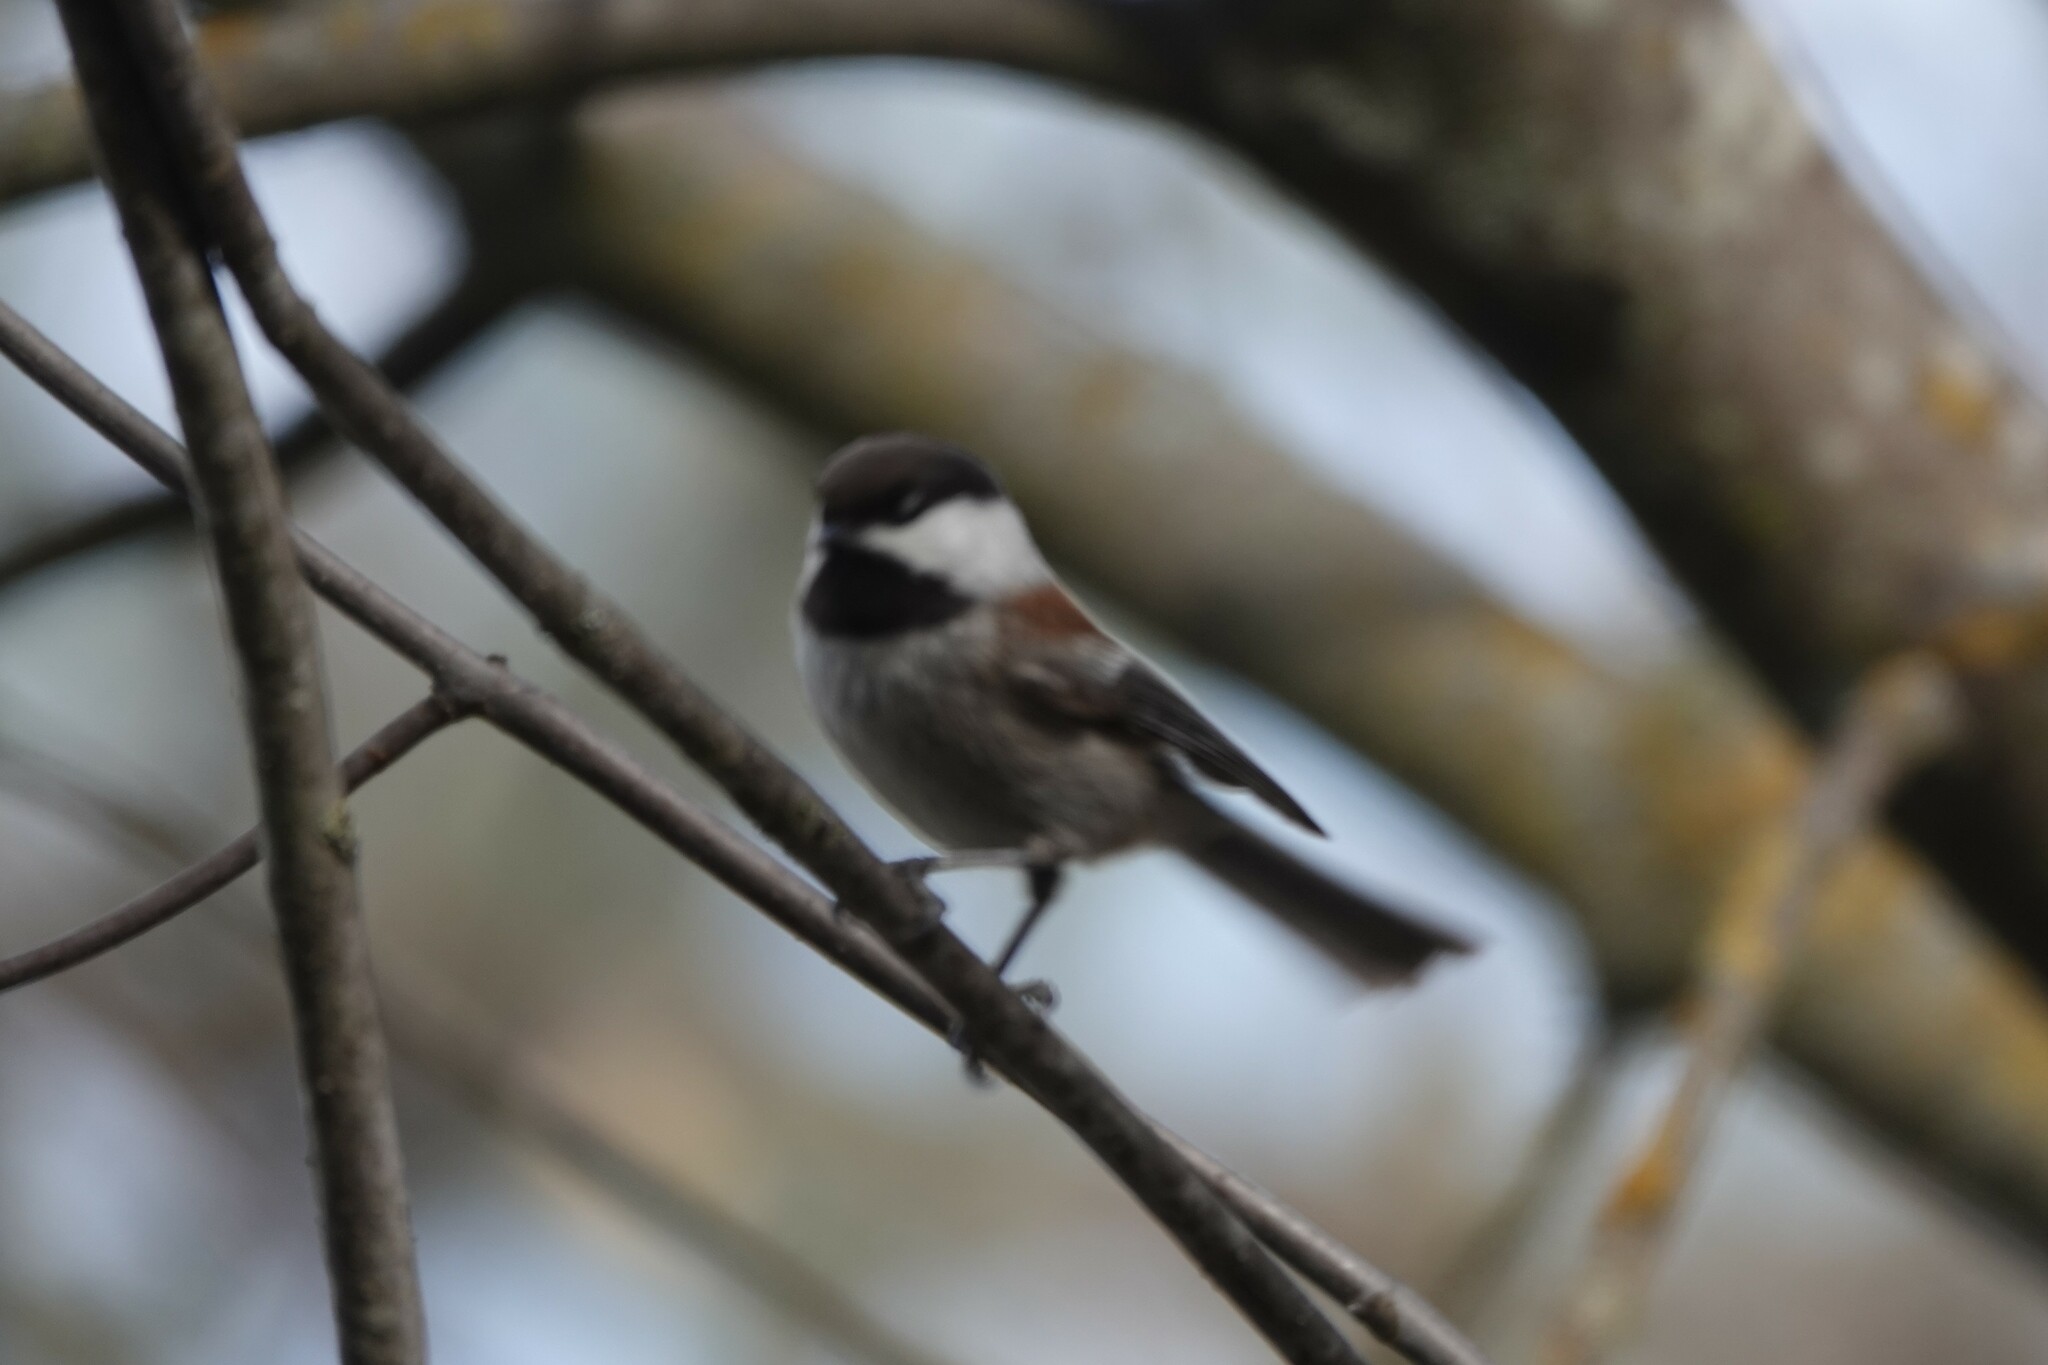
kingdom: Animalia
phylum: Chordata
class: Aves
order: Passeriformes
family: Paridae
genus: Poecile
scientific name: Poecile rufescens
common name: Chestnut-backed chickadee
